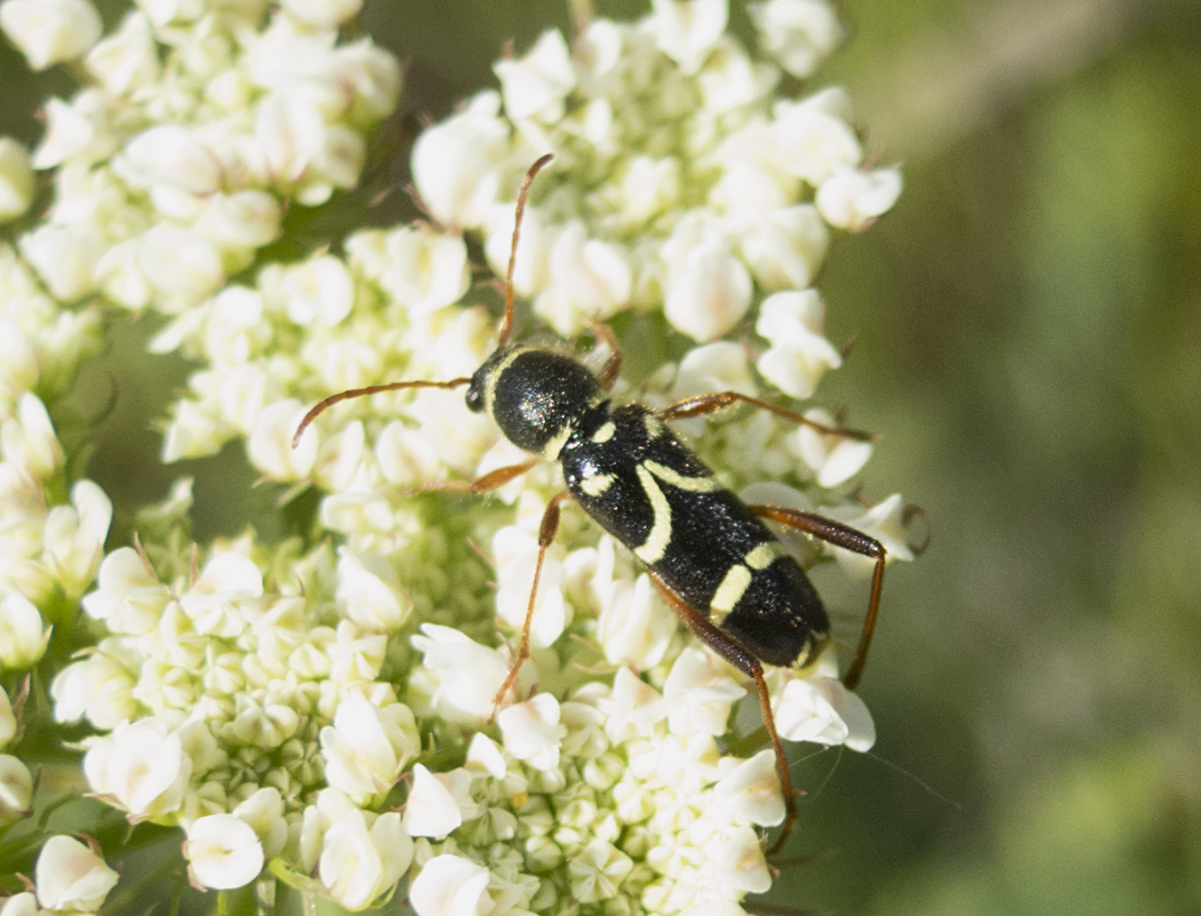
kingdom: Animalia
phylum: Arthropoda
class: Insecta
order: Coleoptera
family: Cerambycidae
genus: Clytus
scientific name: Clytus rhamni
